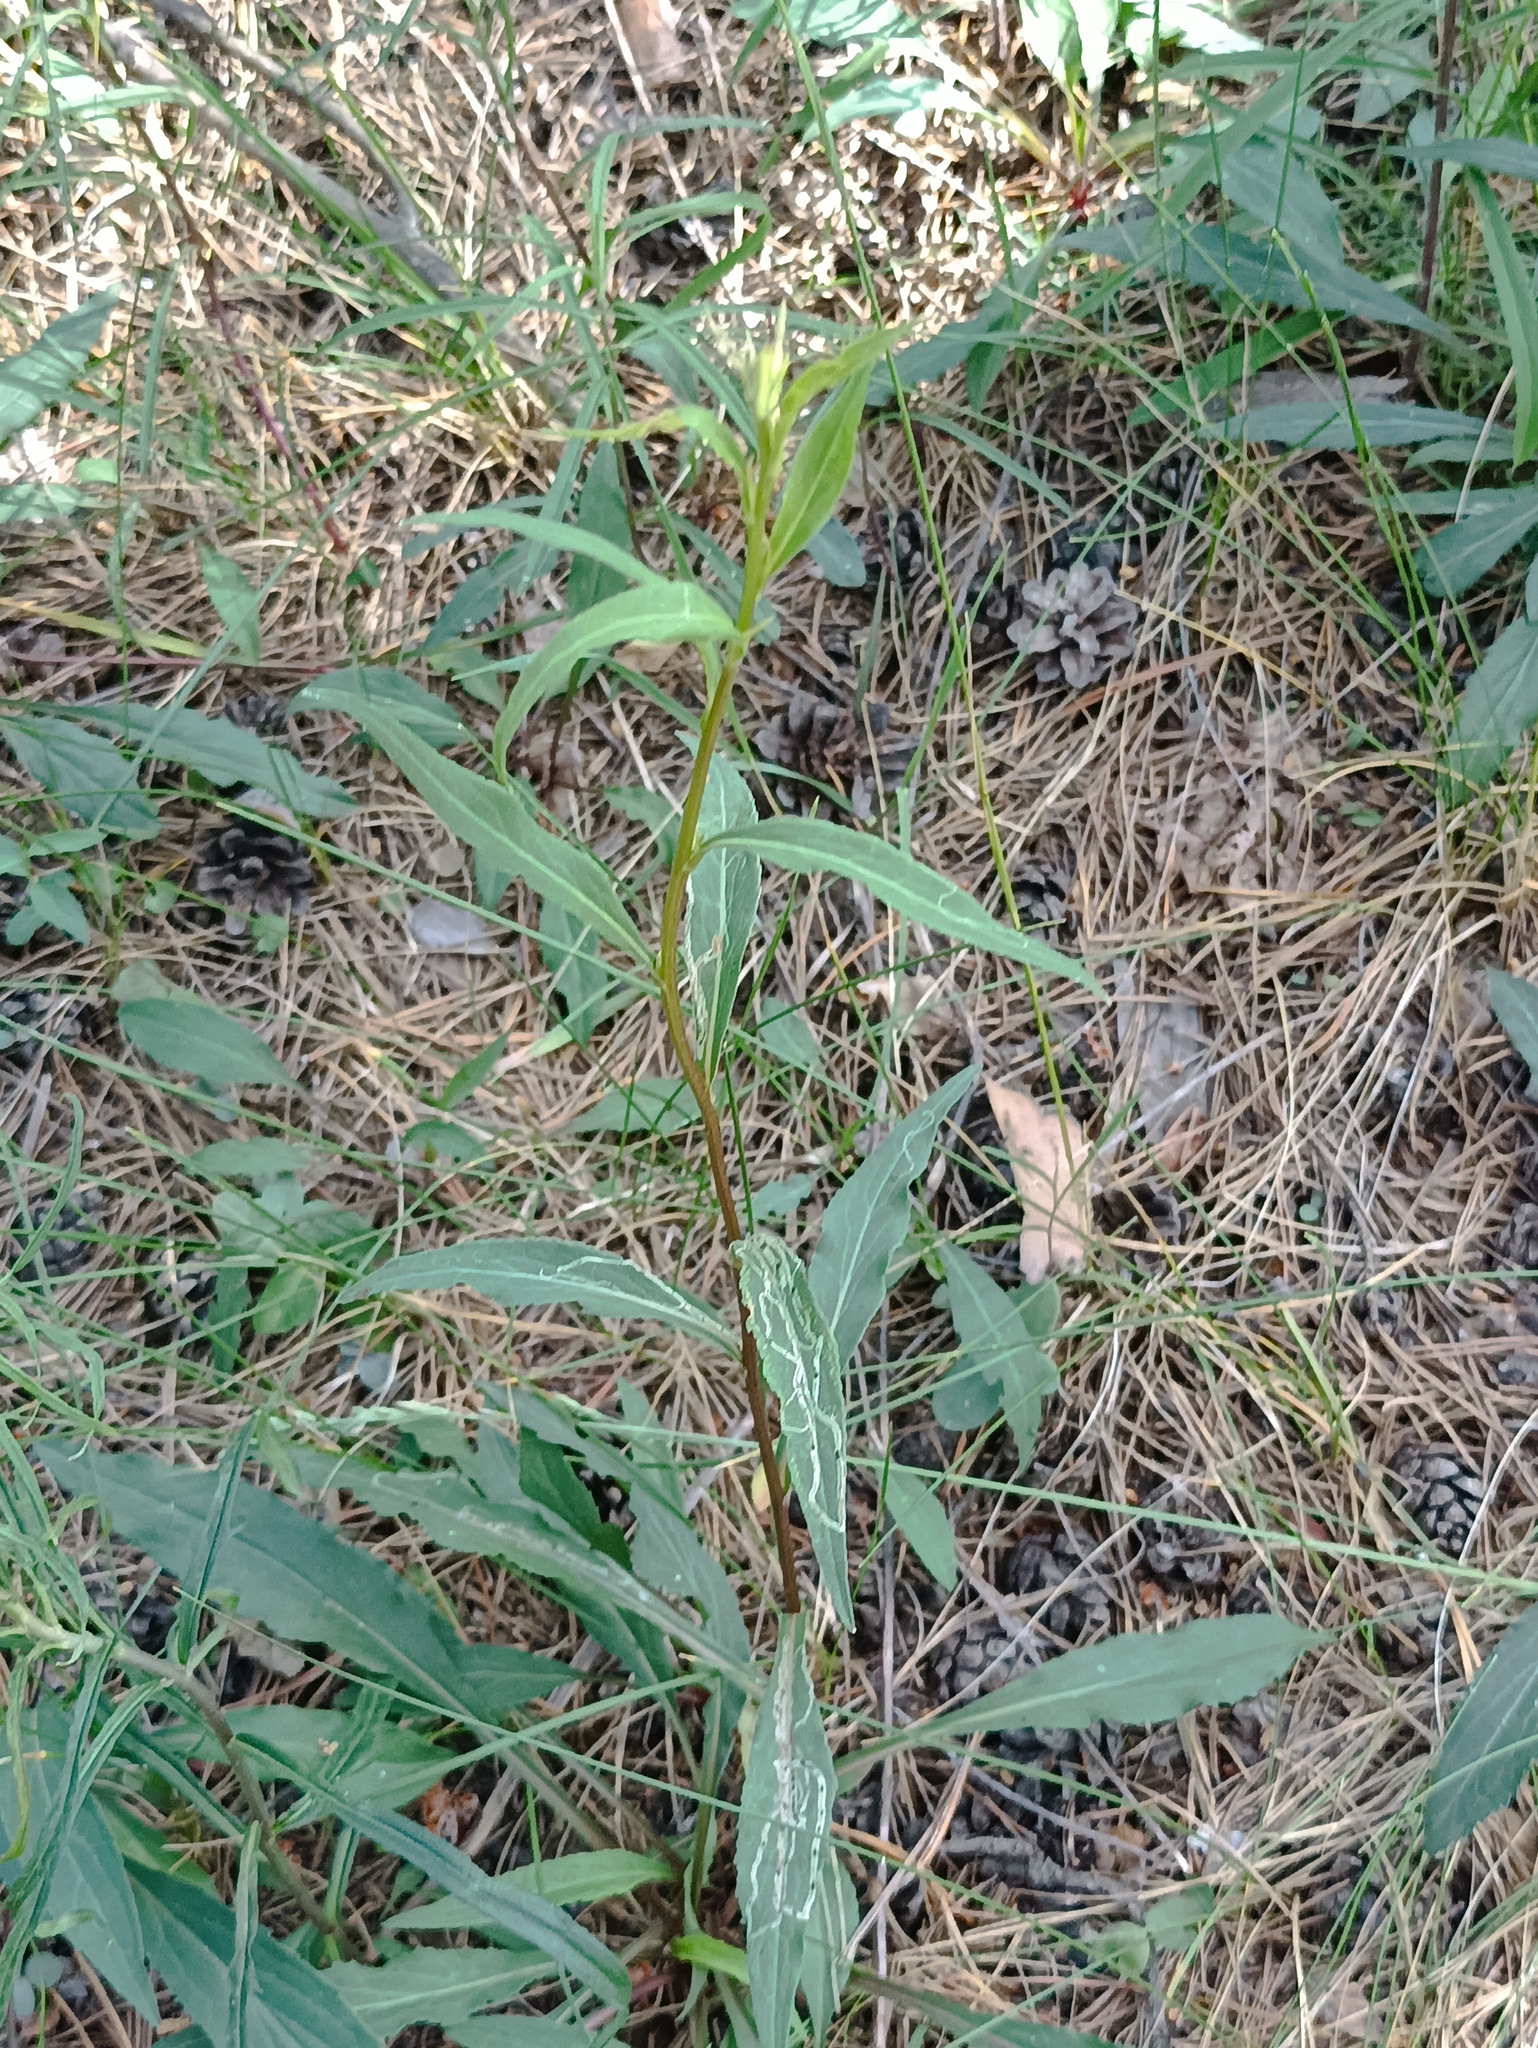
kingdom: Plantae
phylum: Tracheophyta
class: Magnoliopsida
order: Asterales
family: Asteraceae
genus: Solidago
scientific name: Solidago virgaurea
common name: Goldenrod
